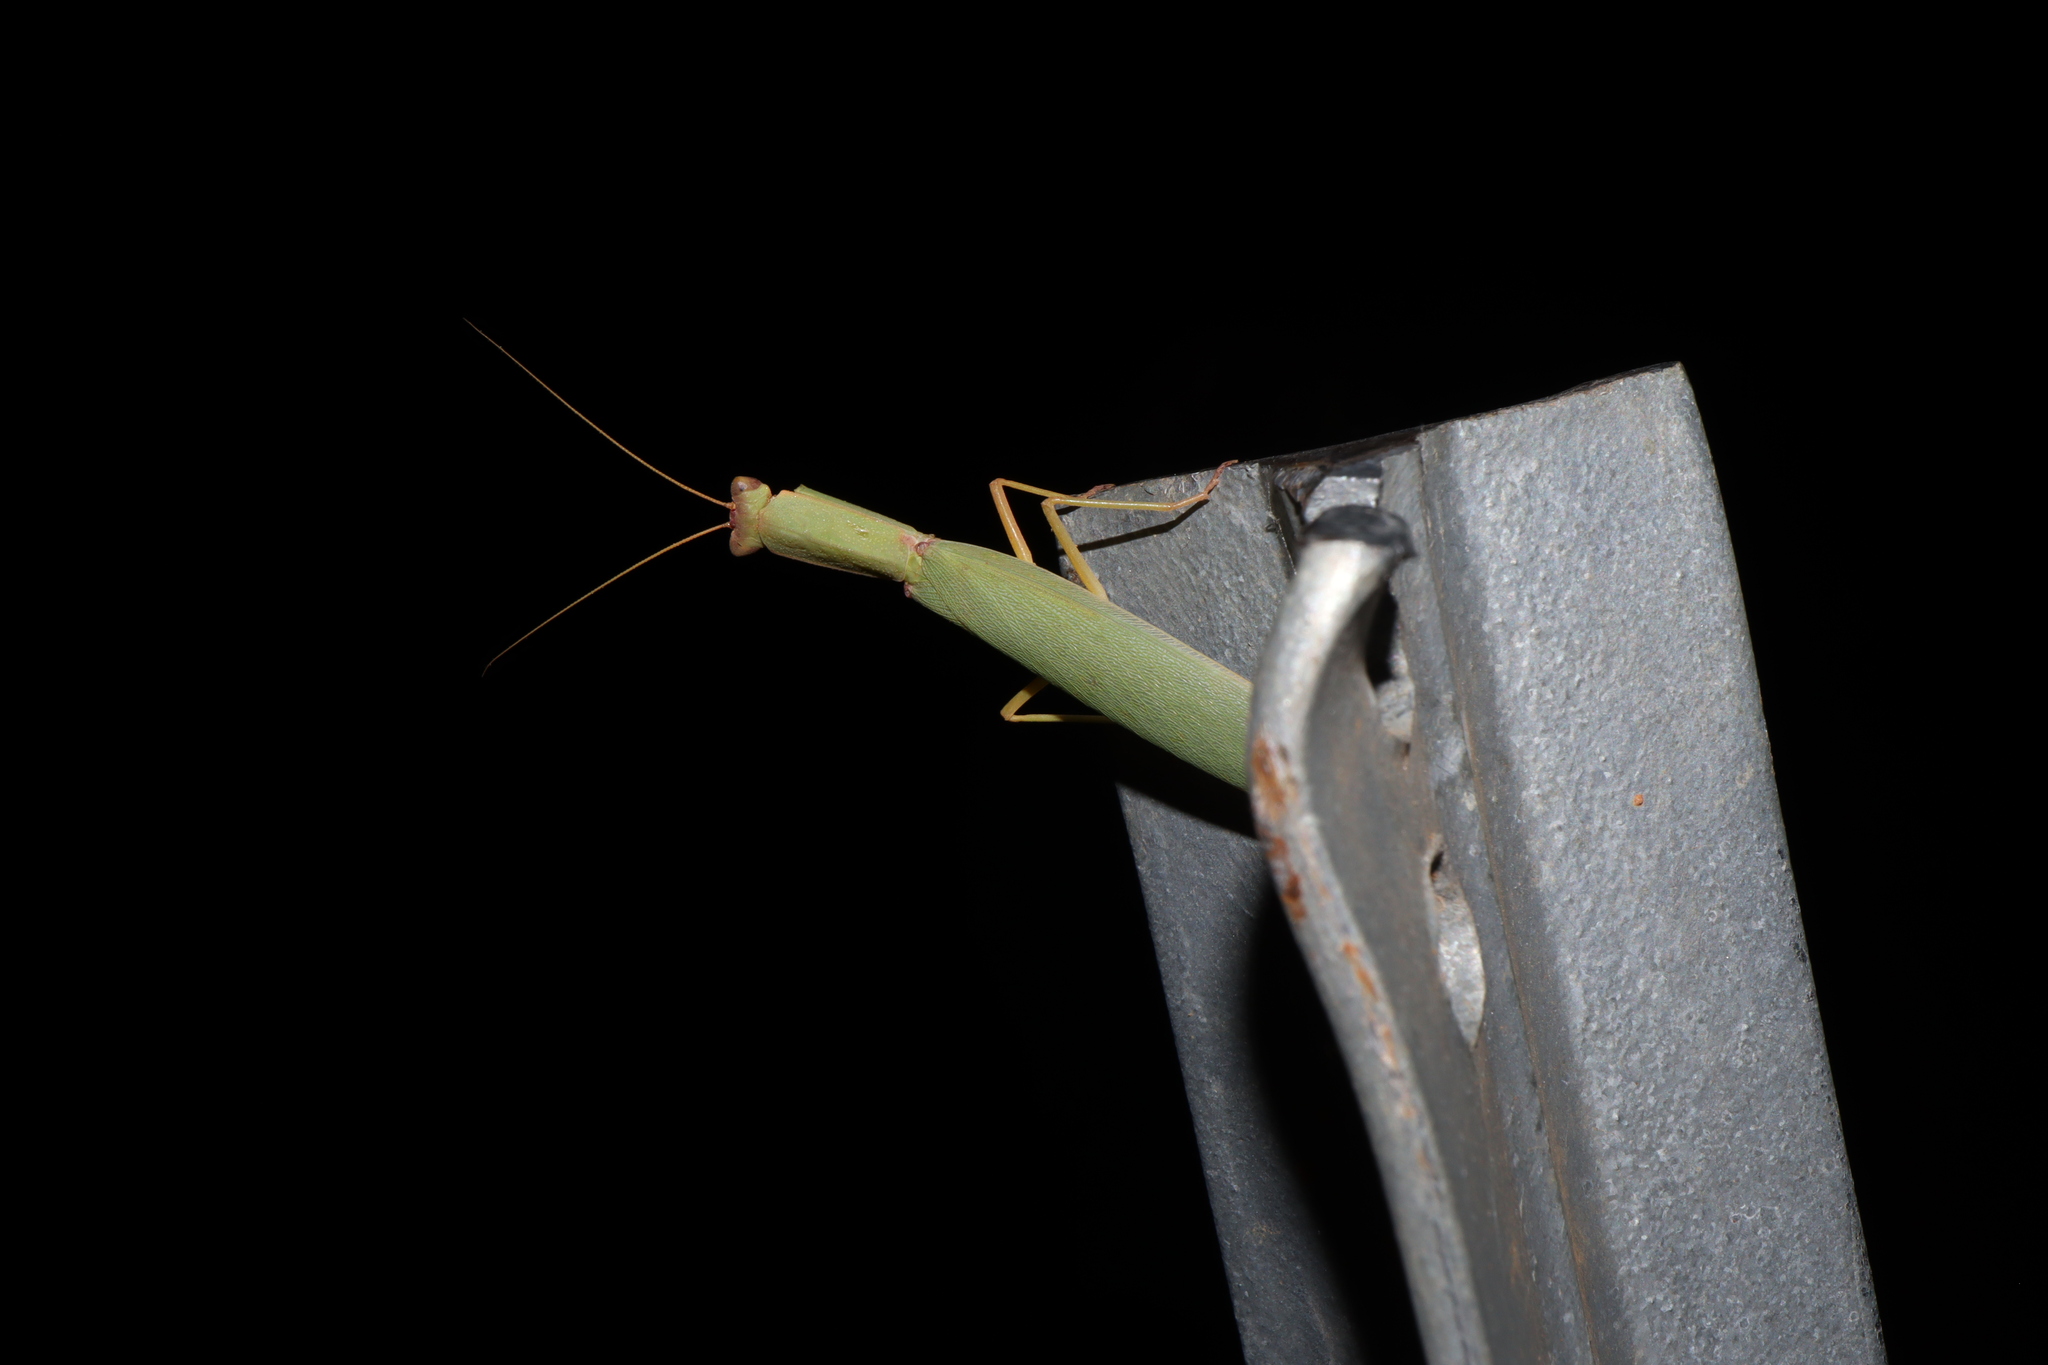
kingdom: Animalia
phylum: Arthropoda
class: Insecta
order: Mantodea
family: Mantidae
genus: Orthodera
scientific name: Orthodera ministralis
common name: Mantis
